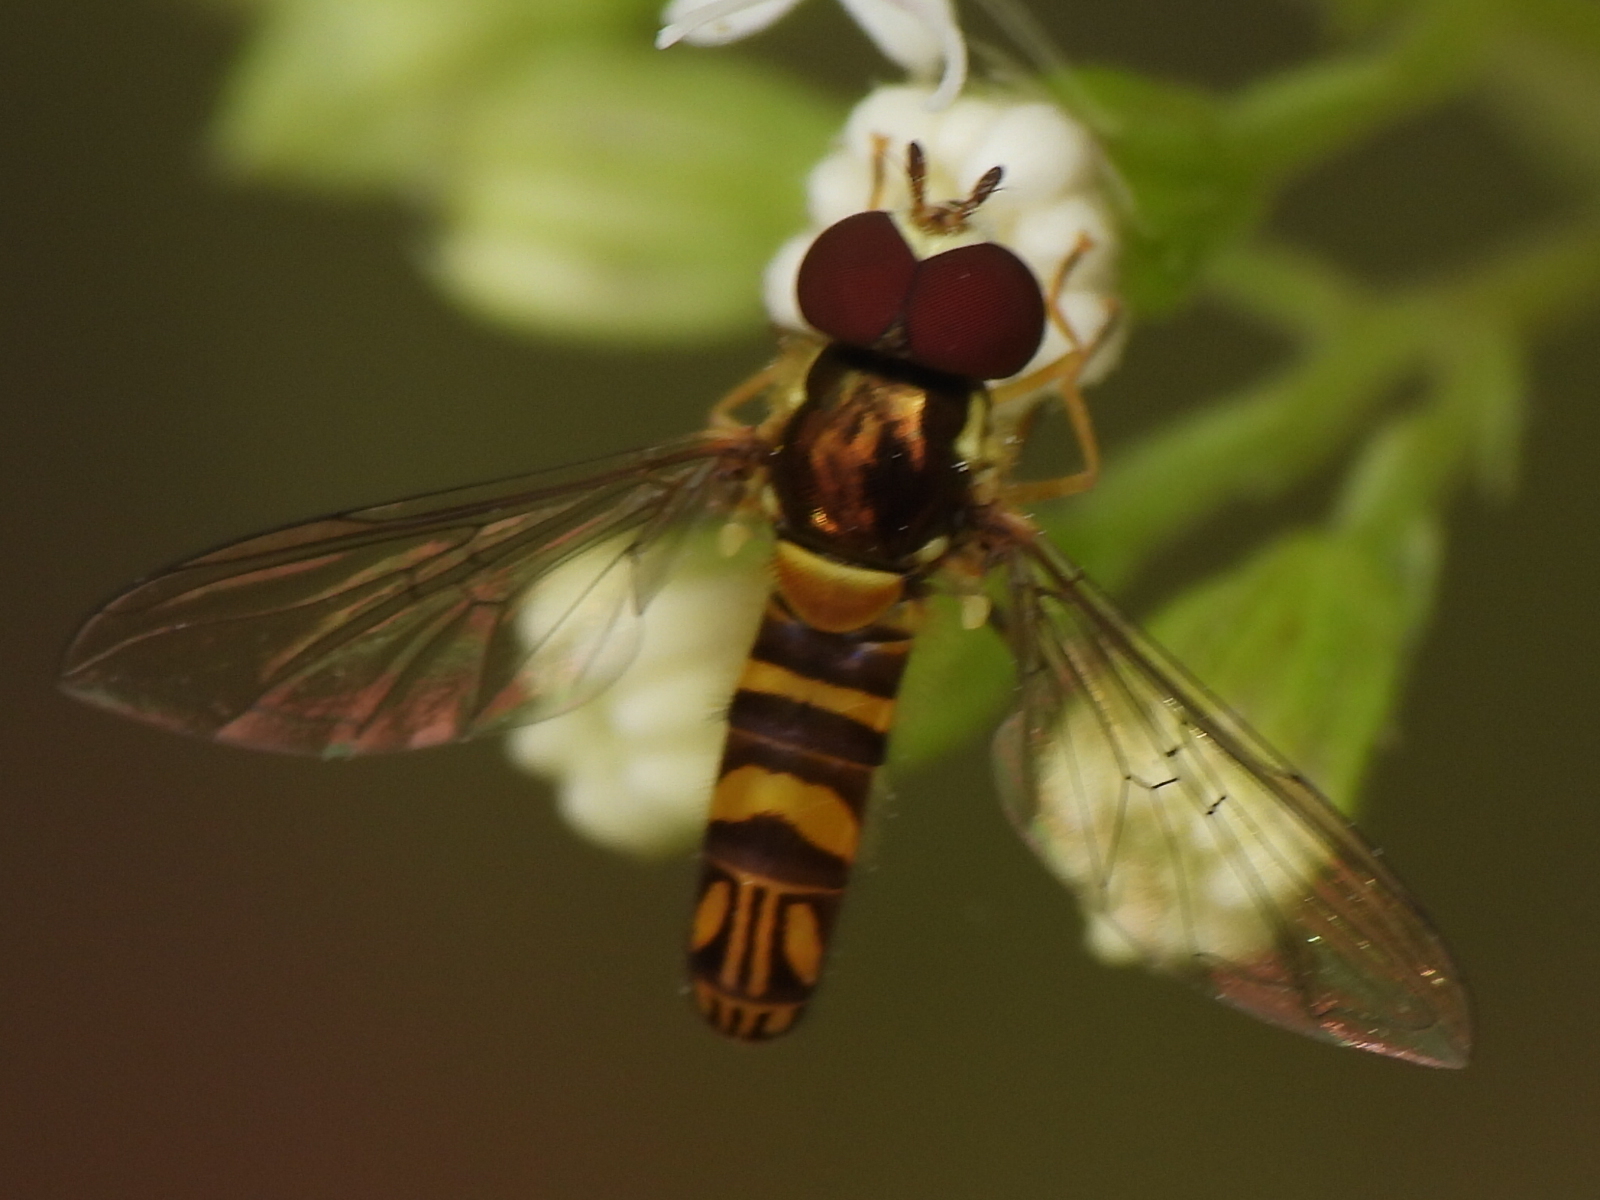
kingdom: Animalia
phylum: Arthropoda
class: Insecta
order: Diptera
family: Syrphidae
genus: Allograpta
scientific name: Allograpta obliqua
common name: Common oblique syrphid
